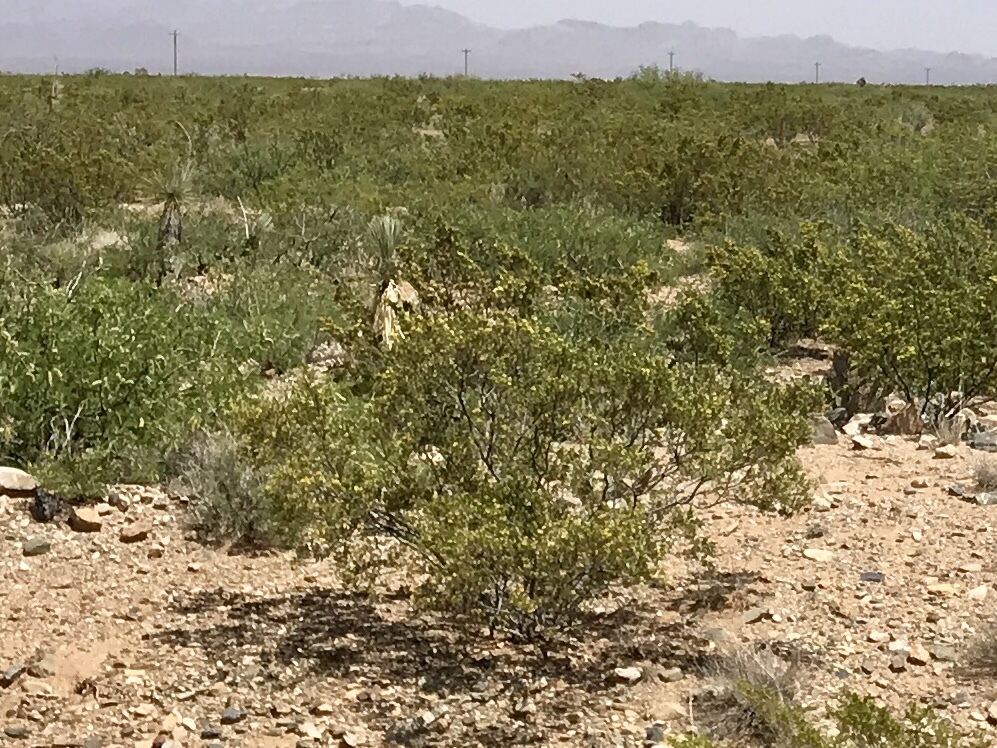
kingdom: Plantae
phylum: Tracheophyta
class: Magnoliopsida
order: Zygophyllales
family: Zygophyllaceae
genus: Larrea
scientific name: Larrea tridentata
